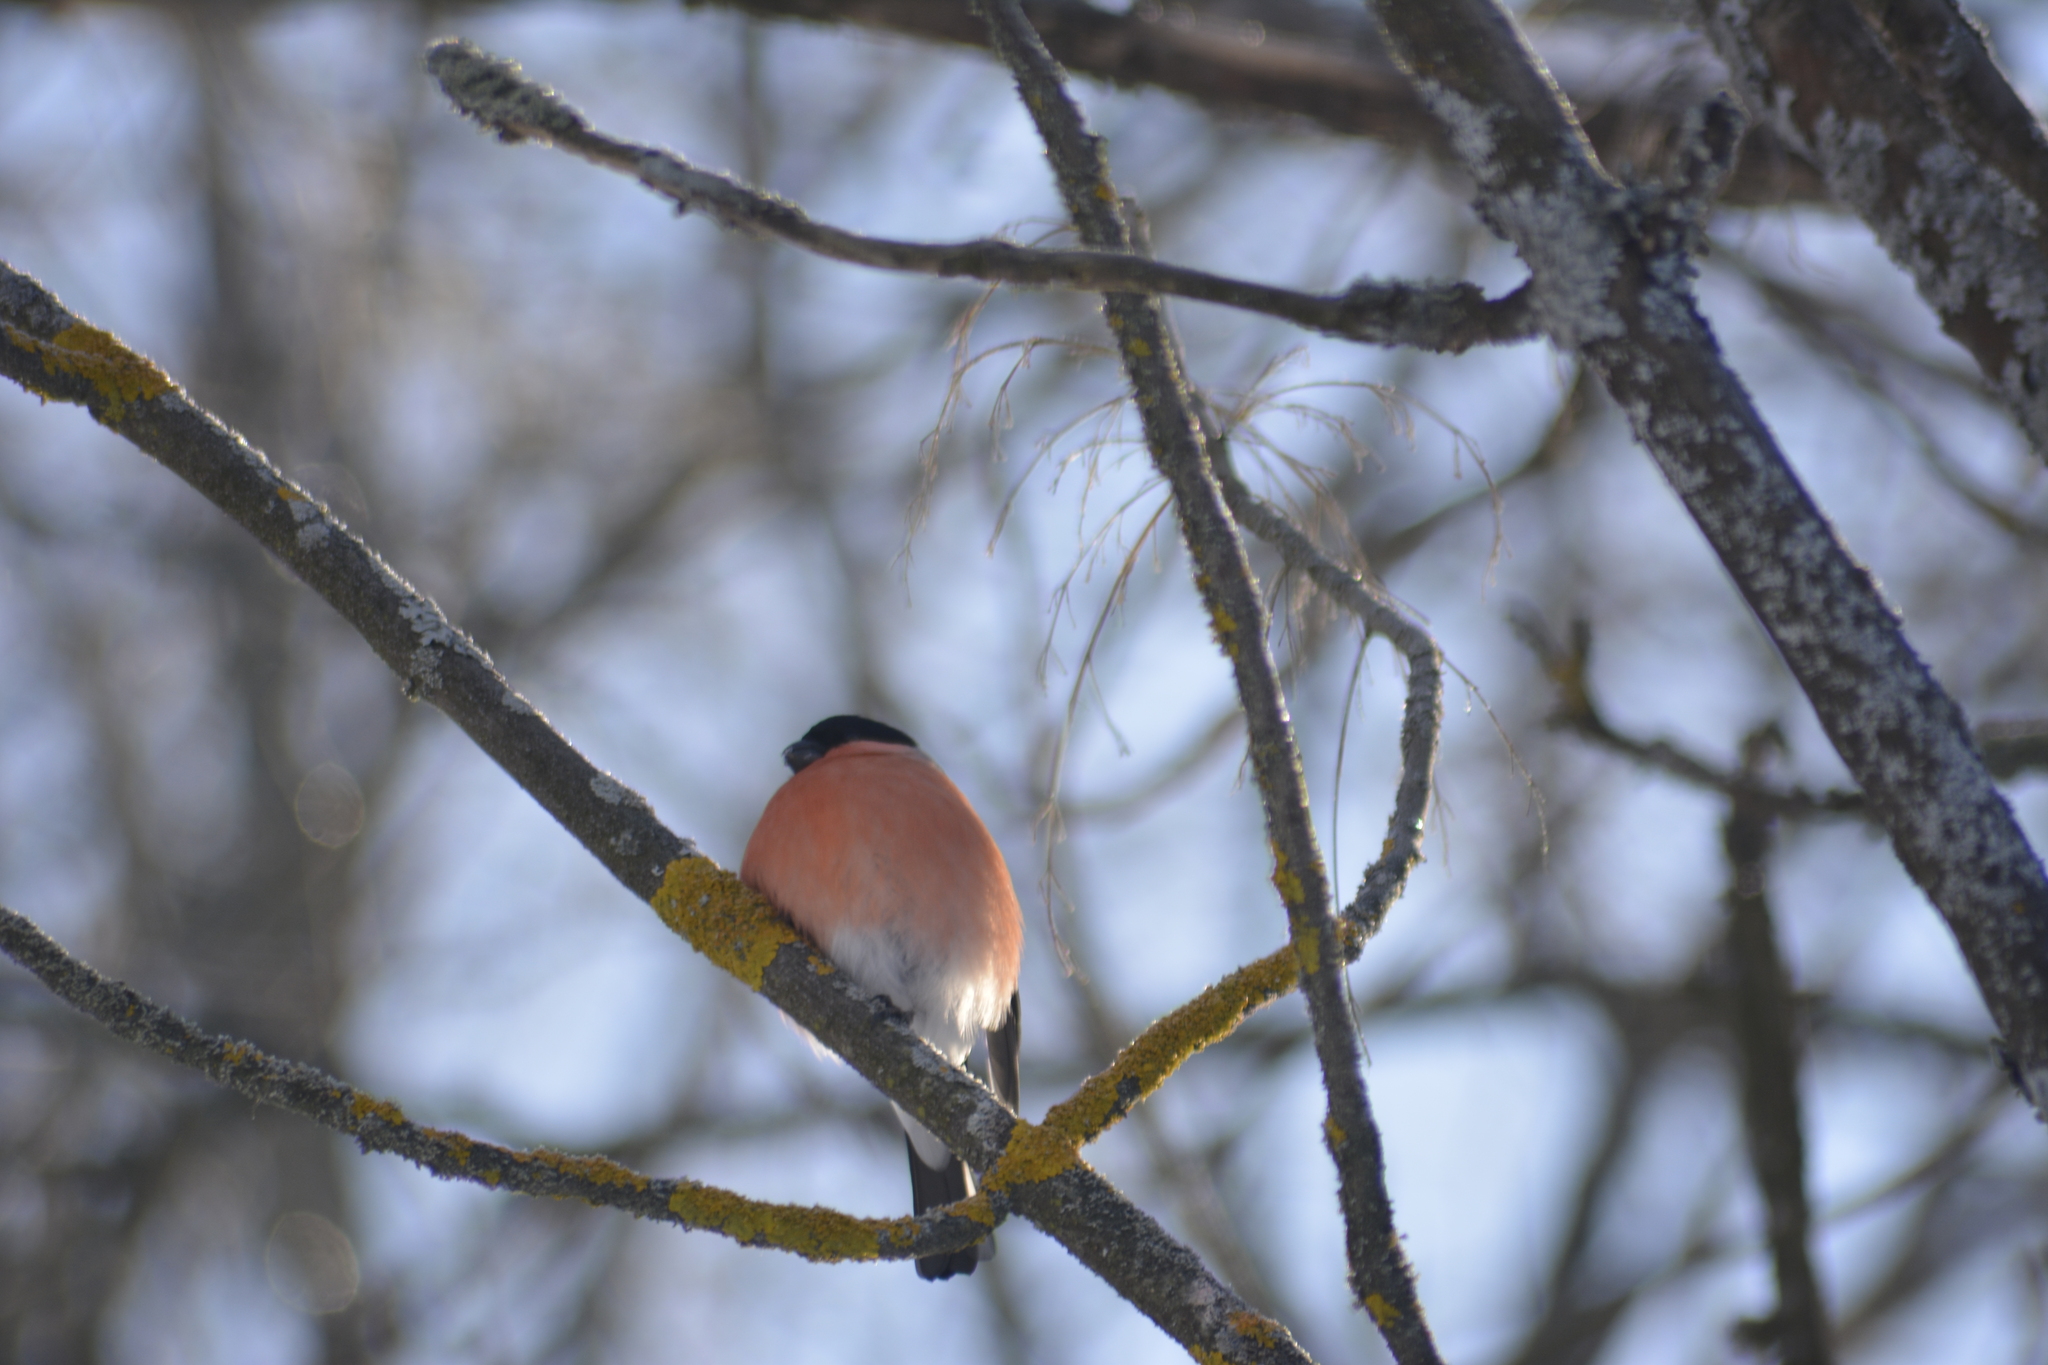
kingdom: Animalia
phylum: Chordata
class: Aves
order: Passeriformes
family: Fringillidae
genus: Pyrrhula
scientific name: Pyrrhula pyrrhula
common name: Eurasian bullfinch
